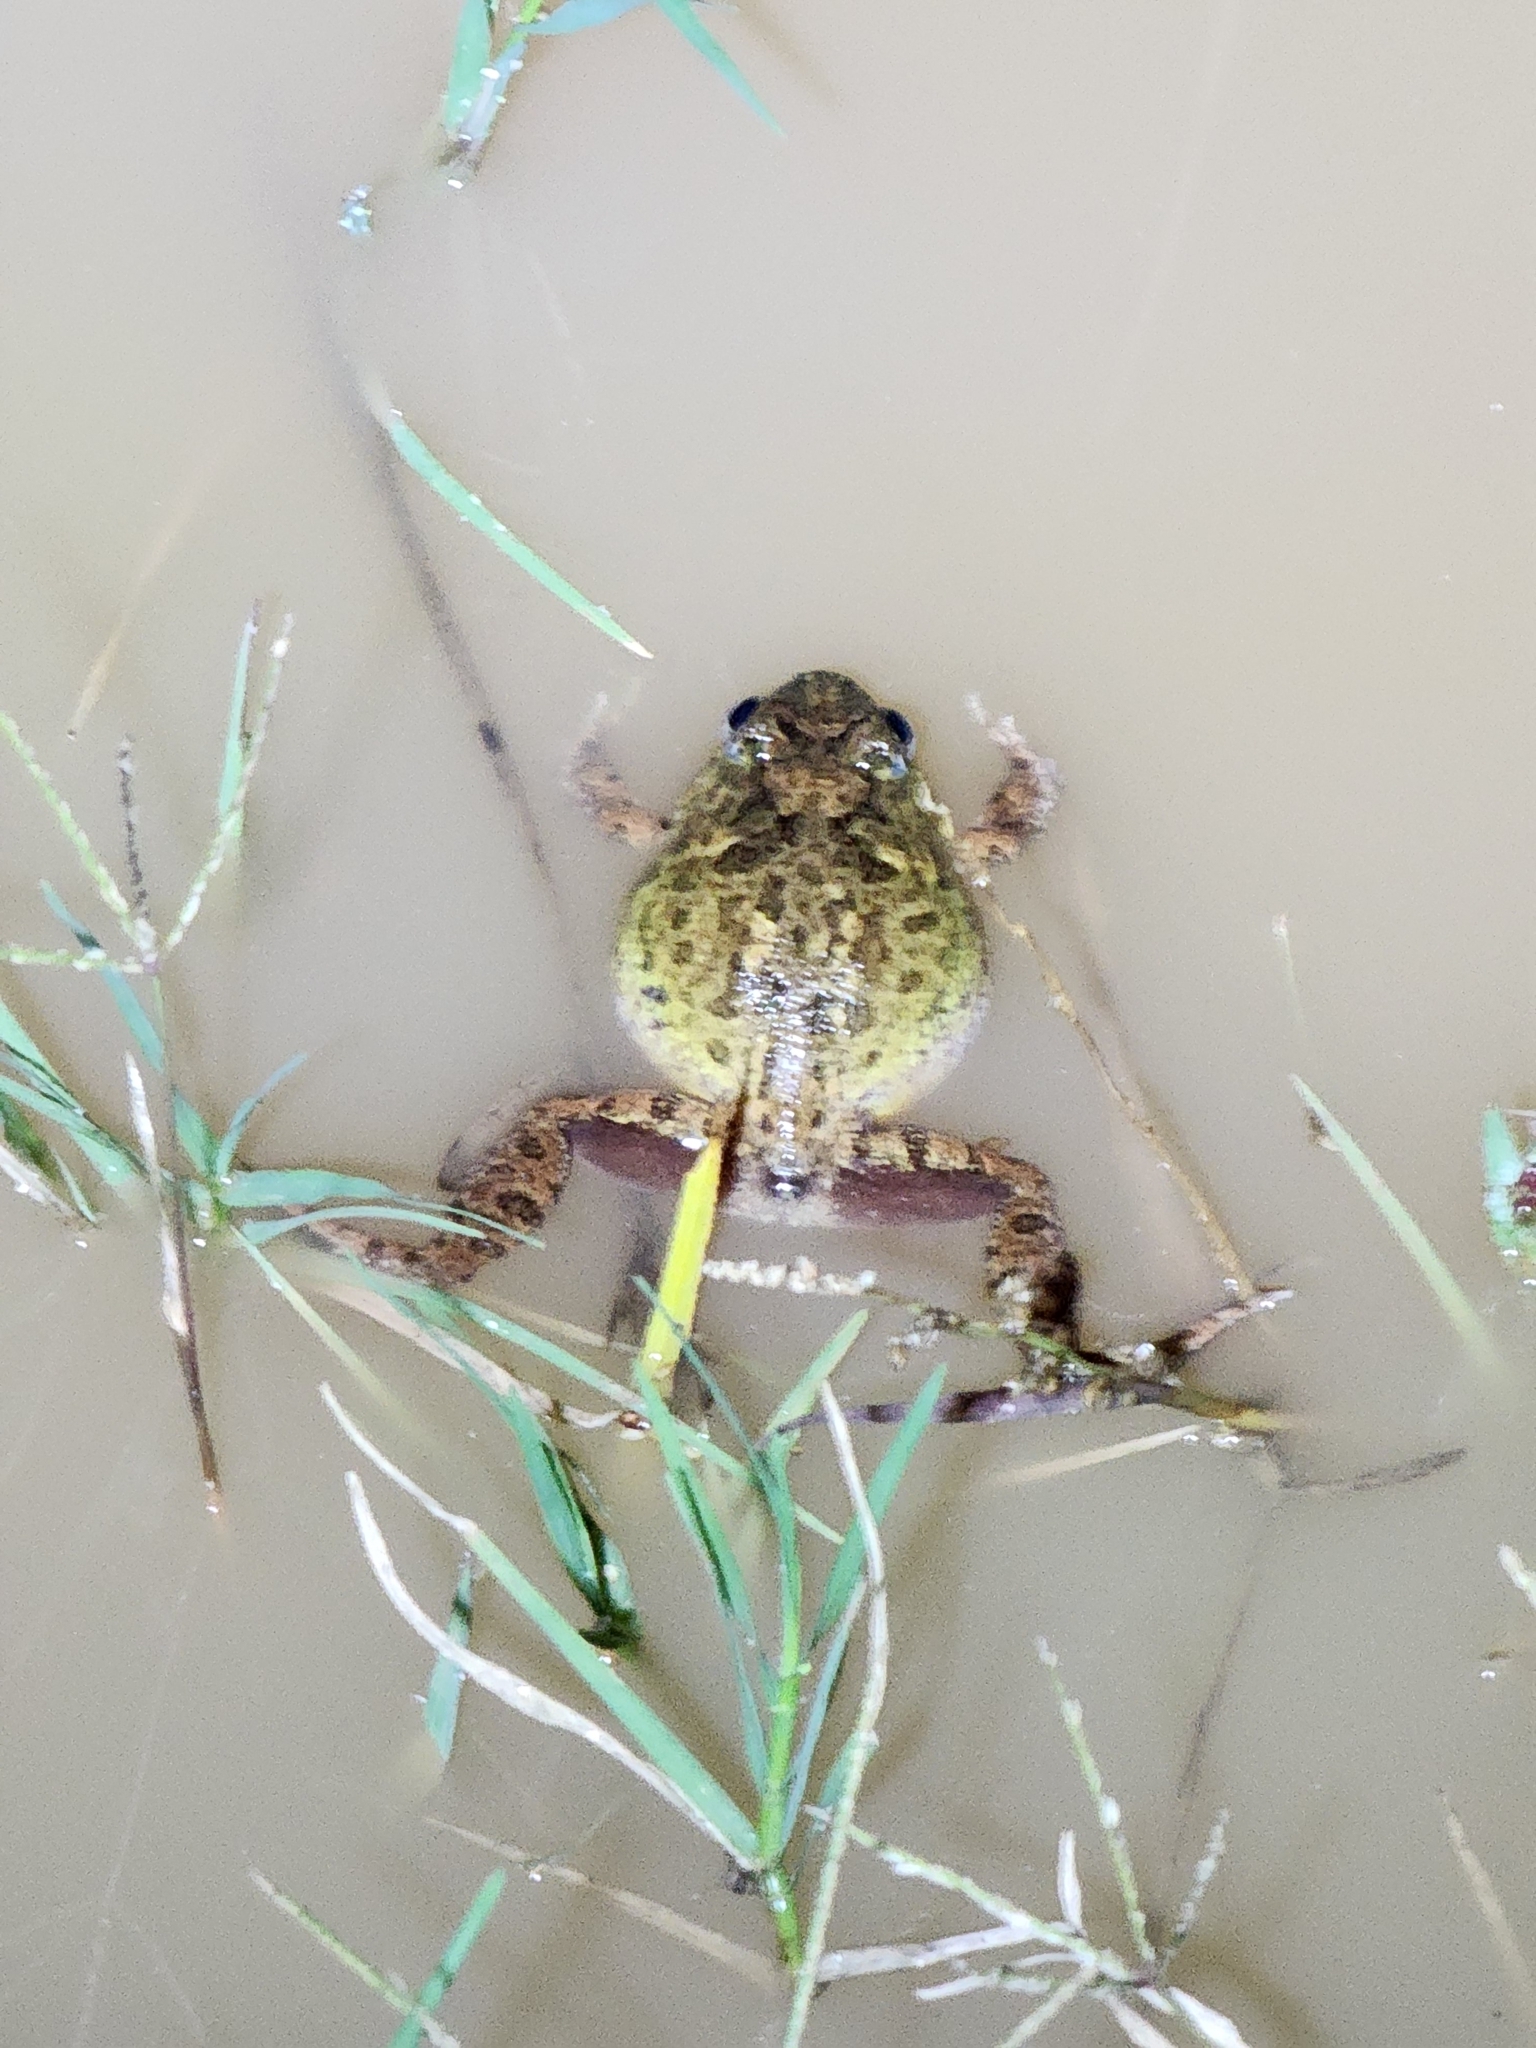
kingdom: Animalia
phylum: Chordata
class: Amphibia
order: Anura
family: Limnodynastidae
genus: Platyplectrum
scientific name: Platyplectrum ornatum
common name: Ornate burrowing frog
